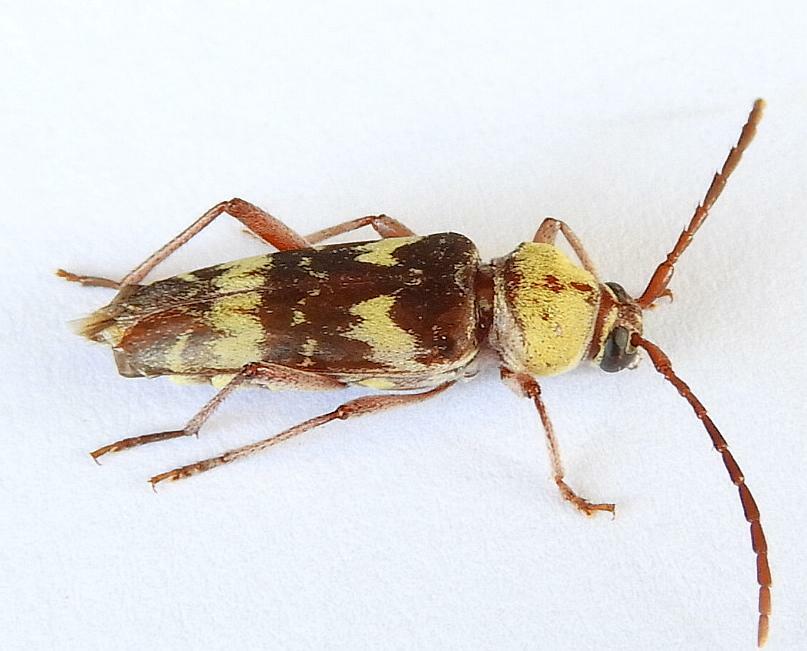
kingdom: Animalia
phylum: Arthropoda
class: Insecta
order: Coleoptera
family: Cerambycidae
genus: Megacyllene
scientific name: Megacyllene antennata
